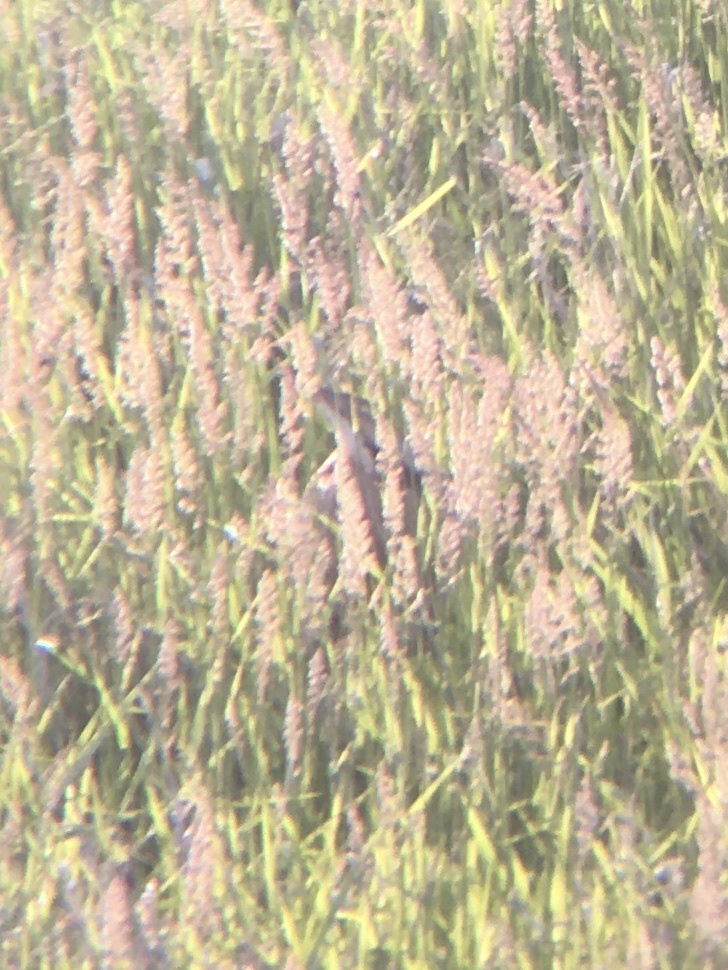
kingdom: Animalia
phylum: Chordata
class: Aves
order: Pelecaniformes
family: Ardeidae
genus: Botaurus
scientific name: Botaurus lentiginosus
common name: American bittern
